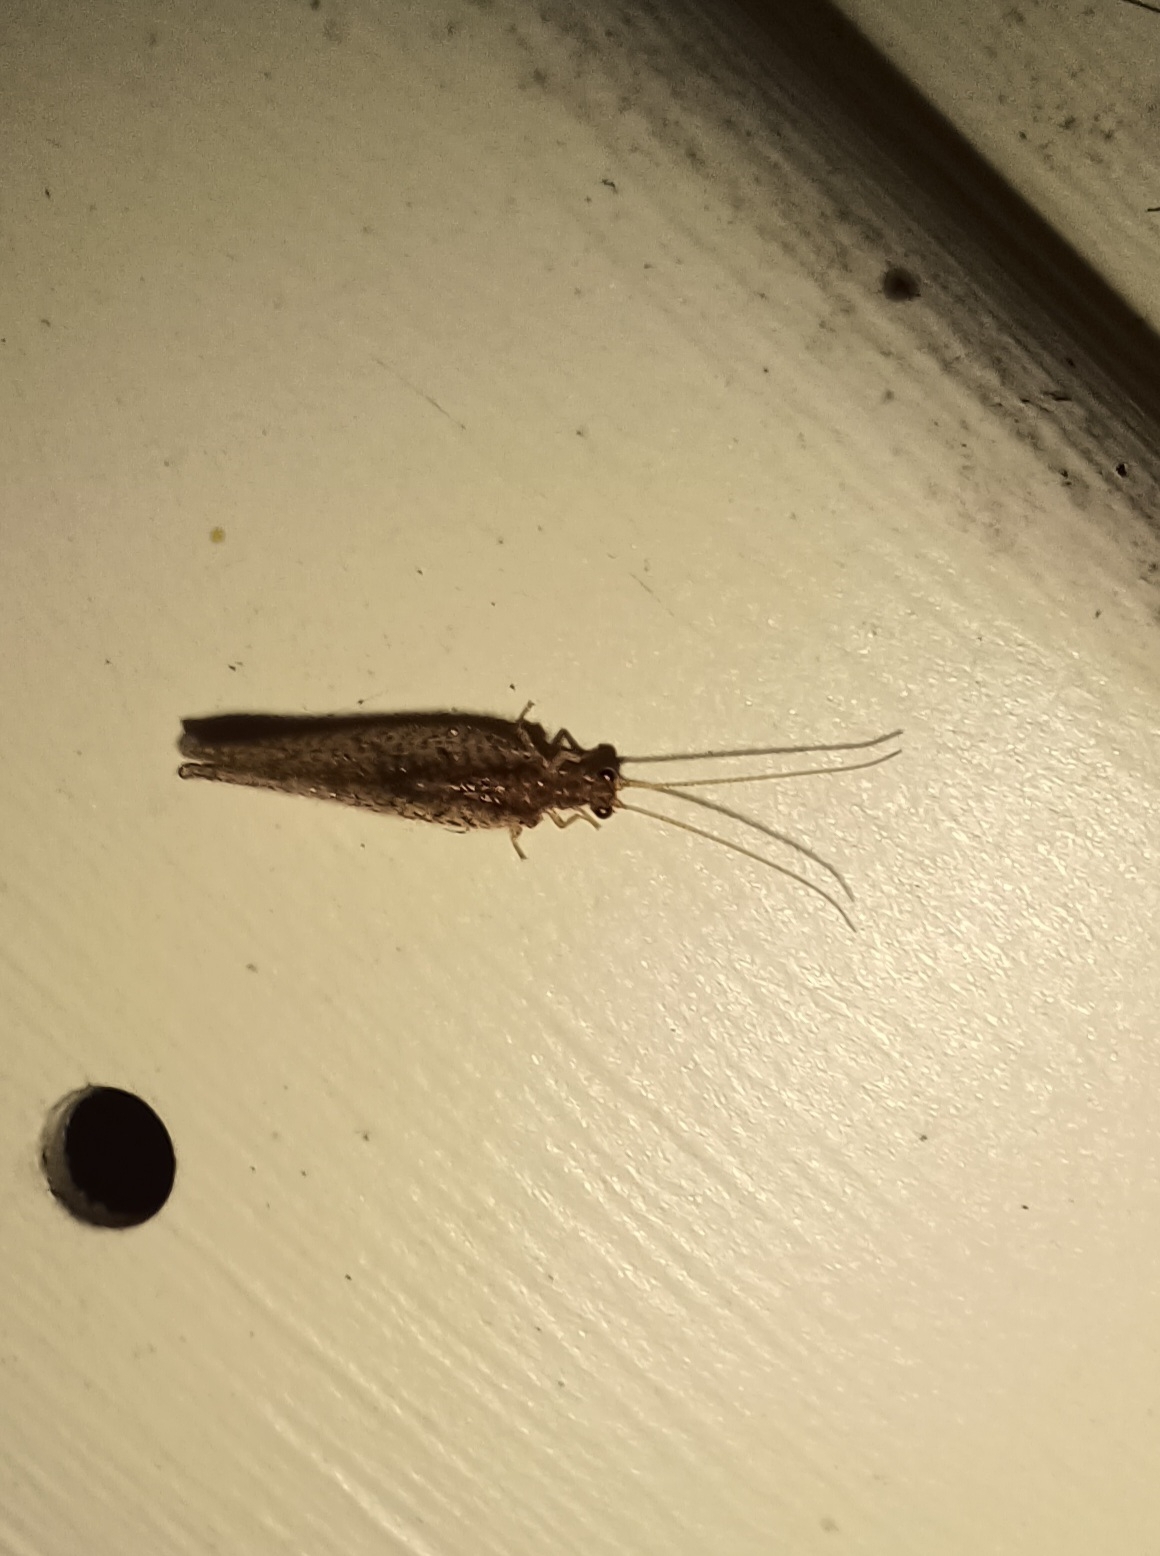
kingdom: Animalia
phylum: Arthropoda
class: Insecta
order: Neuroptera
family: Hemerobiidae
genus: Micromus
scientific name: Micromus posticus
